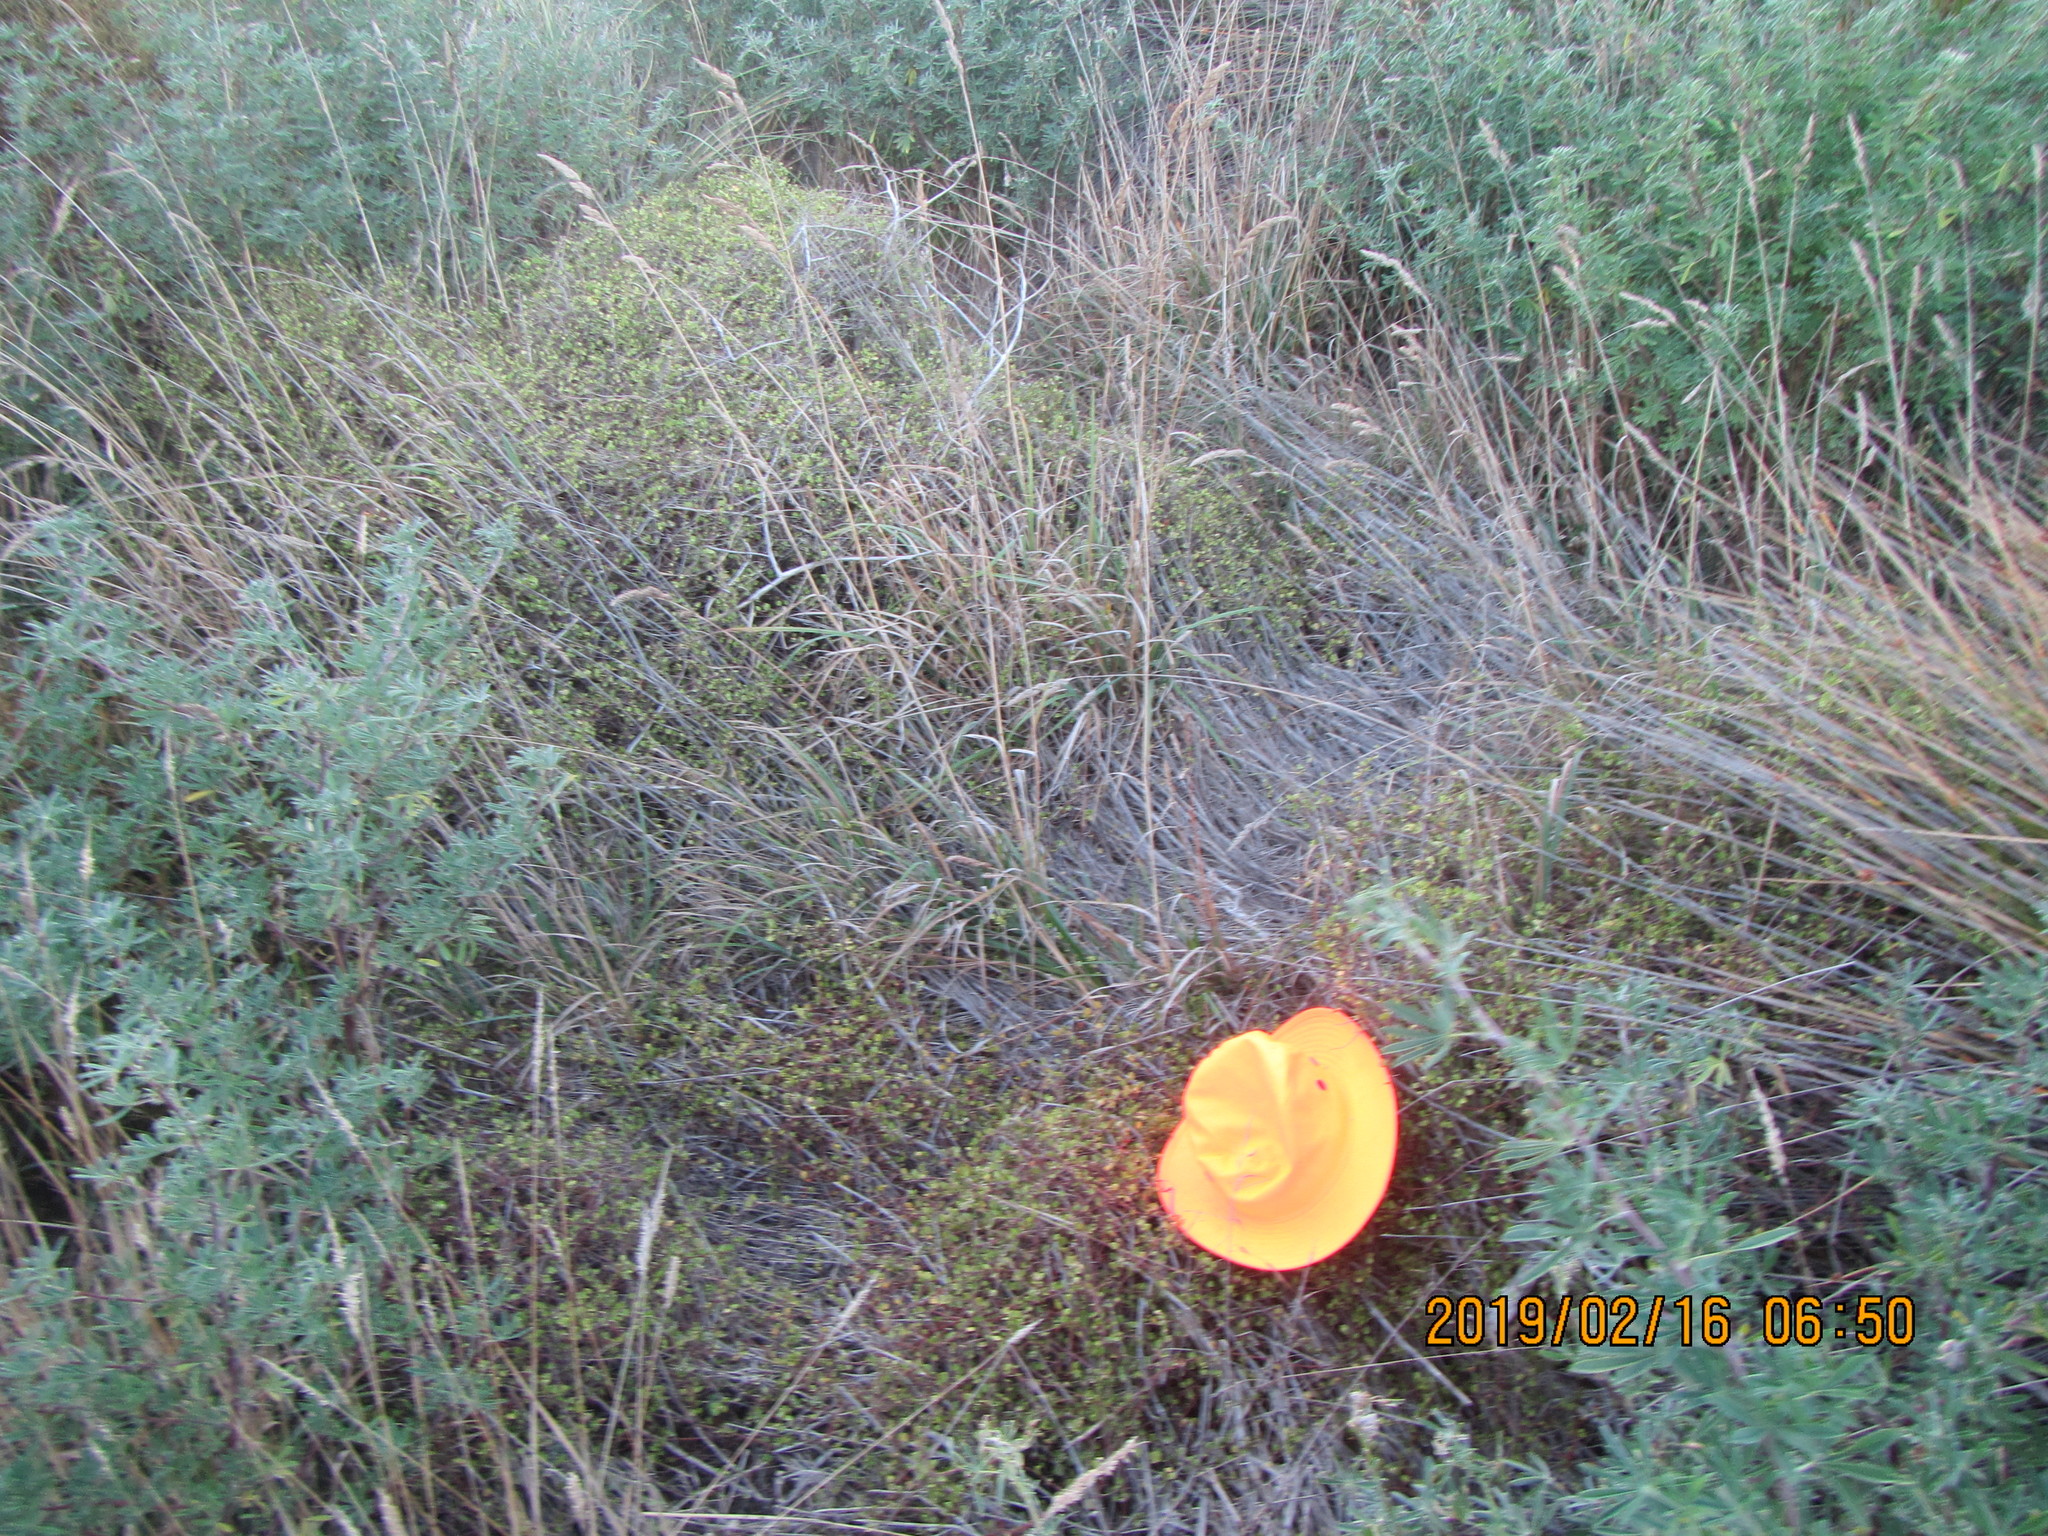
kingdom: Plantae
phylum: Tracheophyta
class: Magnoliopsida
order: Caryophyllales
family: Polygonaceae
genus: Muehlenbeckia
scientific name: Muehlenbeckia complexa
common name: Wireplant
